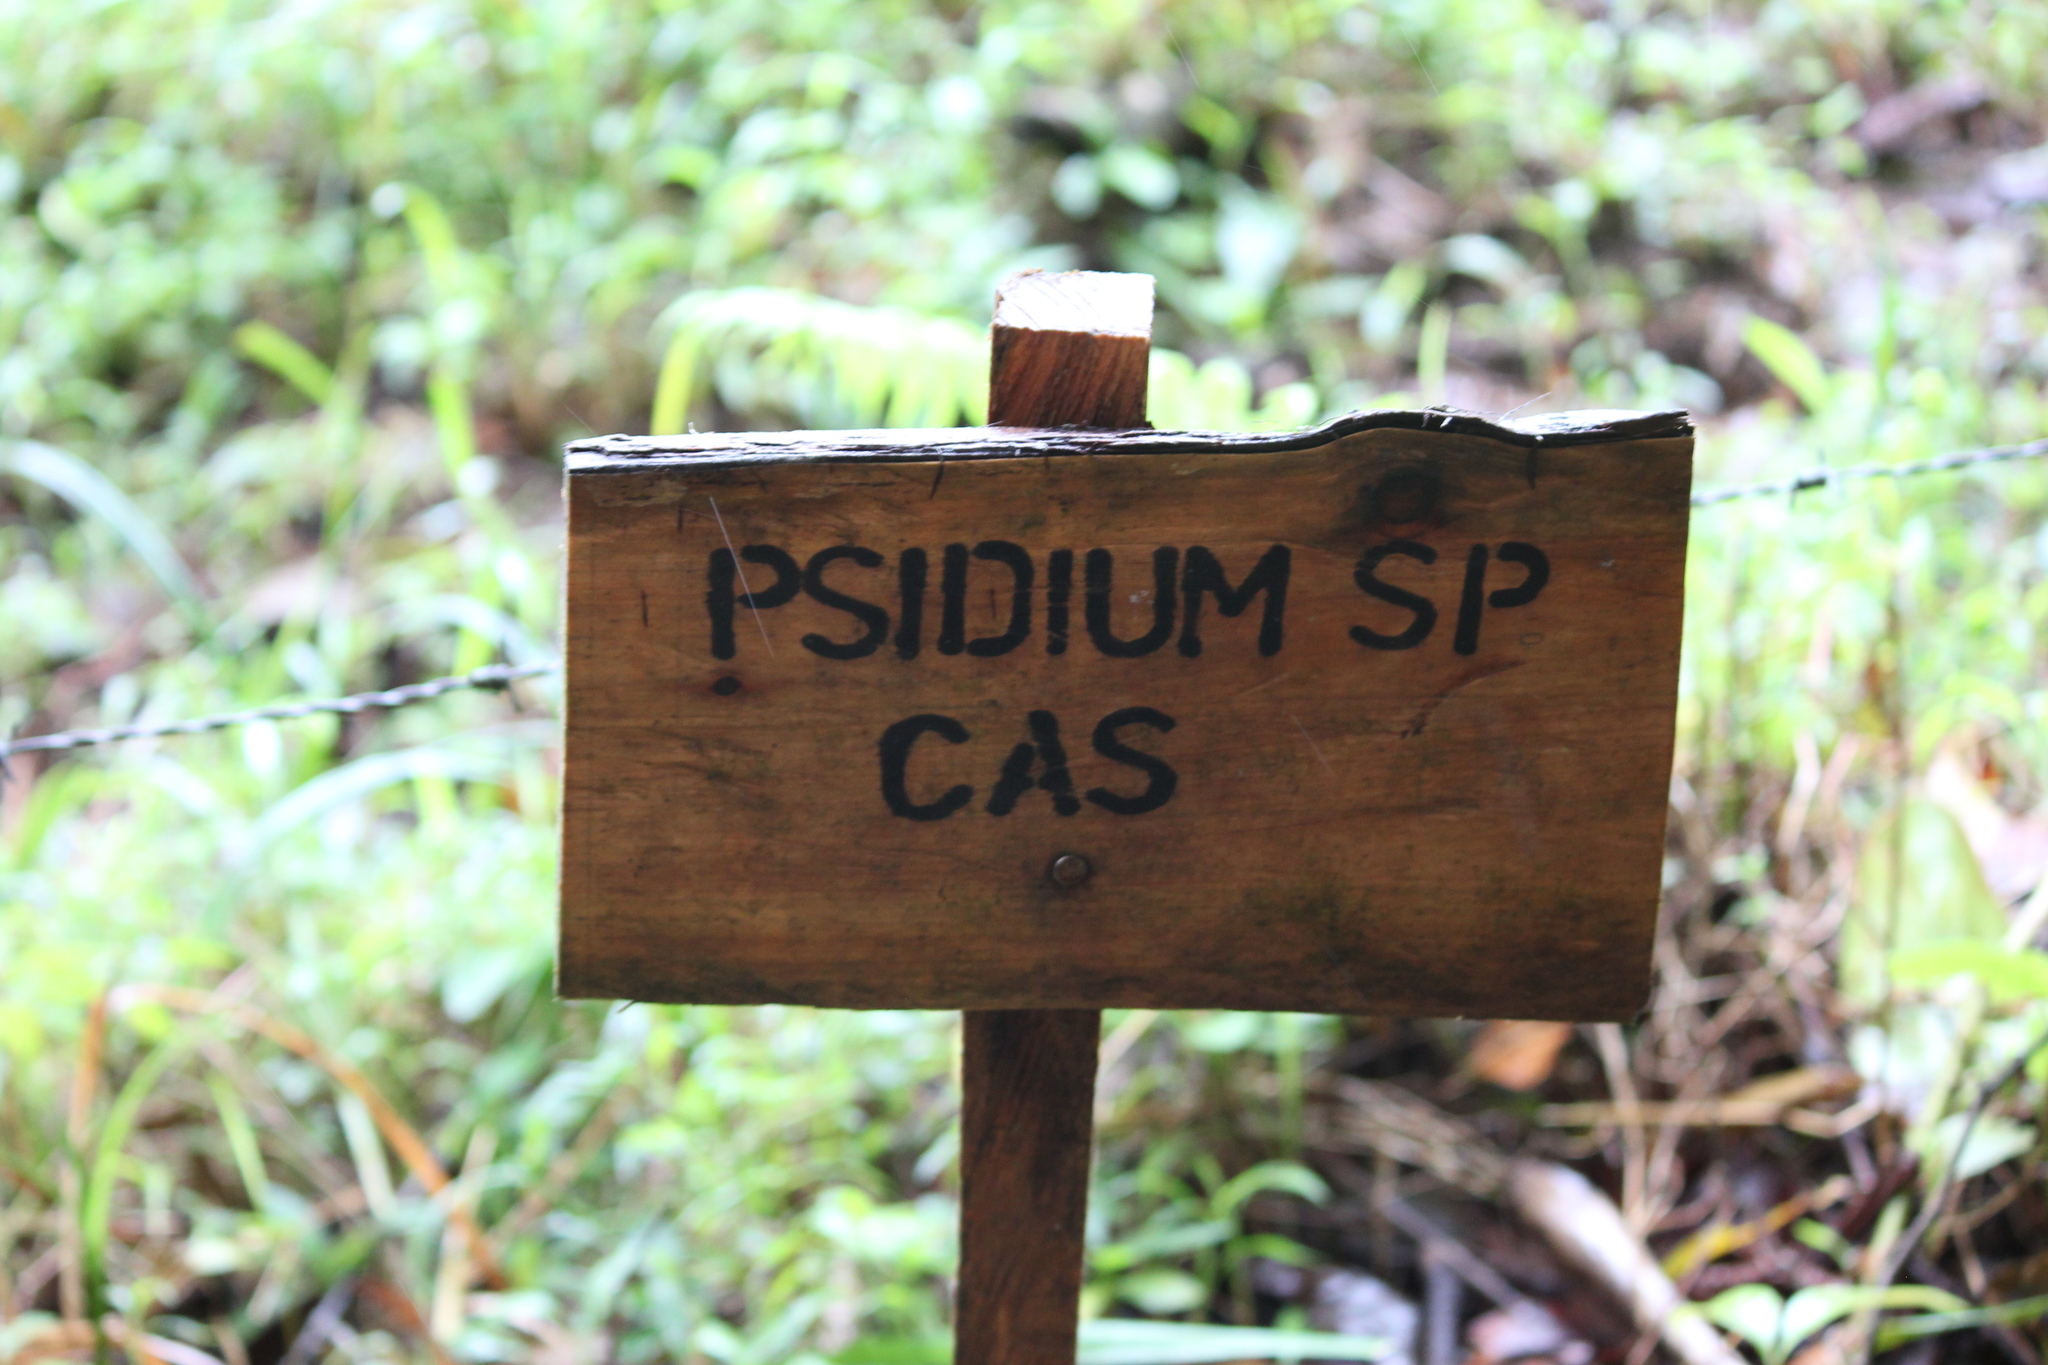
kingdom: Plantae
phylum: Tracheophyta
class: Magnoliopsida
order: Myrtales
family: Myrtaceae
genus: Psidium
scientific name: Psidium guajava
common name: Guava
